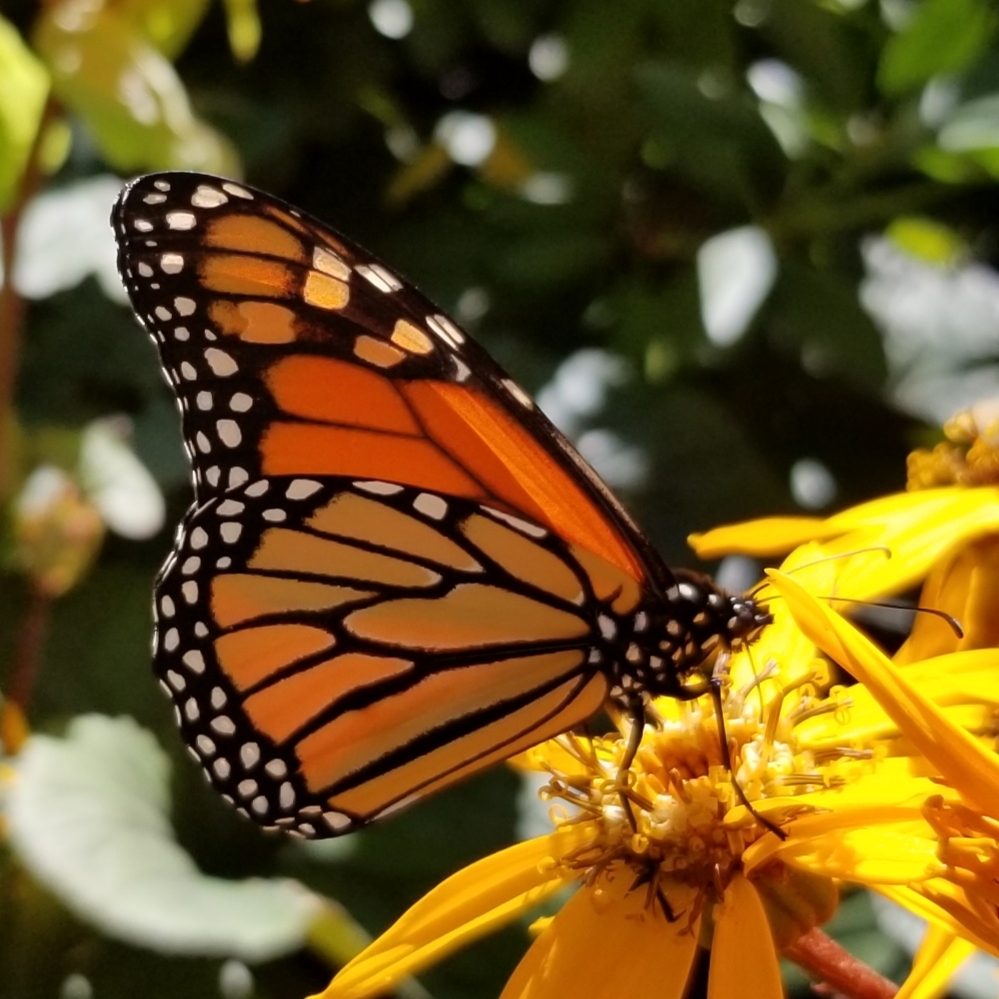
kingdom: Animalia
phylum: Arthropoda
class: Insecta
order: Lepidoptera
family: Nymphalidae
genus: Danaus
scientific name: Danaus plexippus
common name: Monarch
